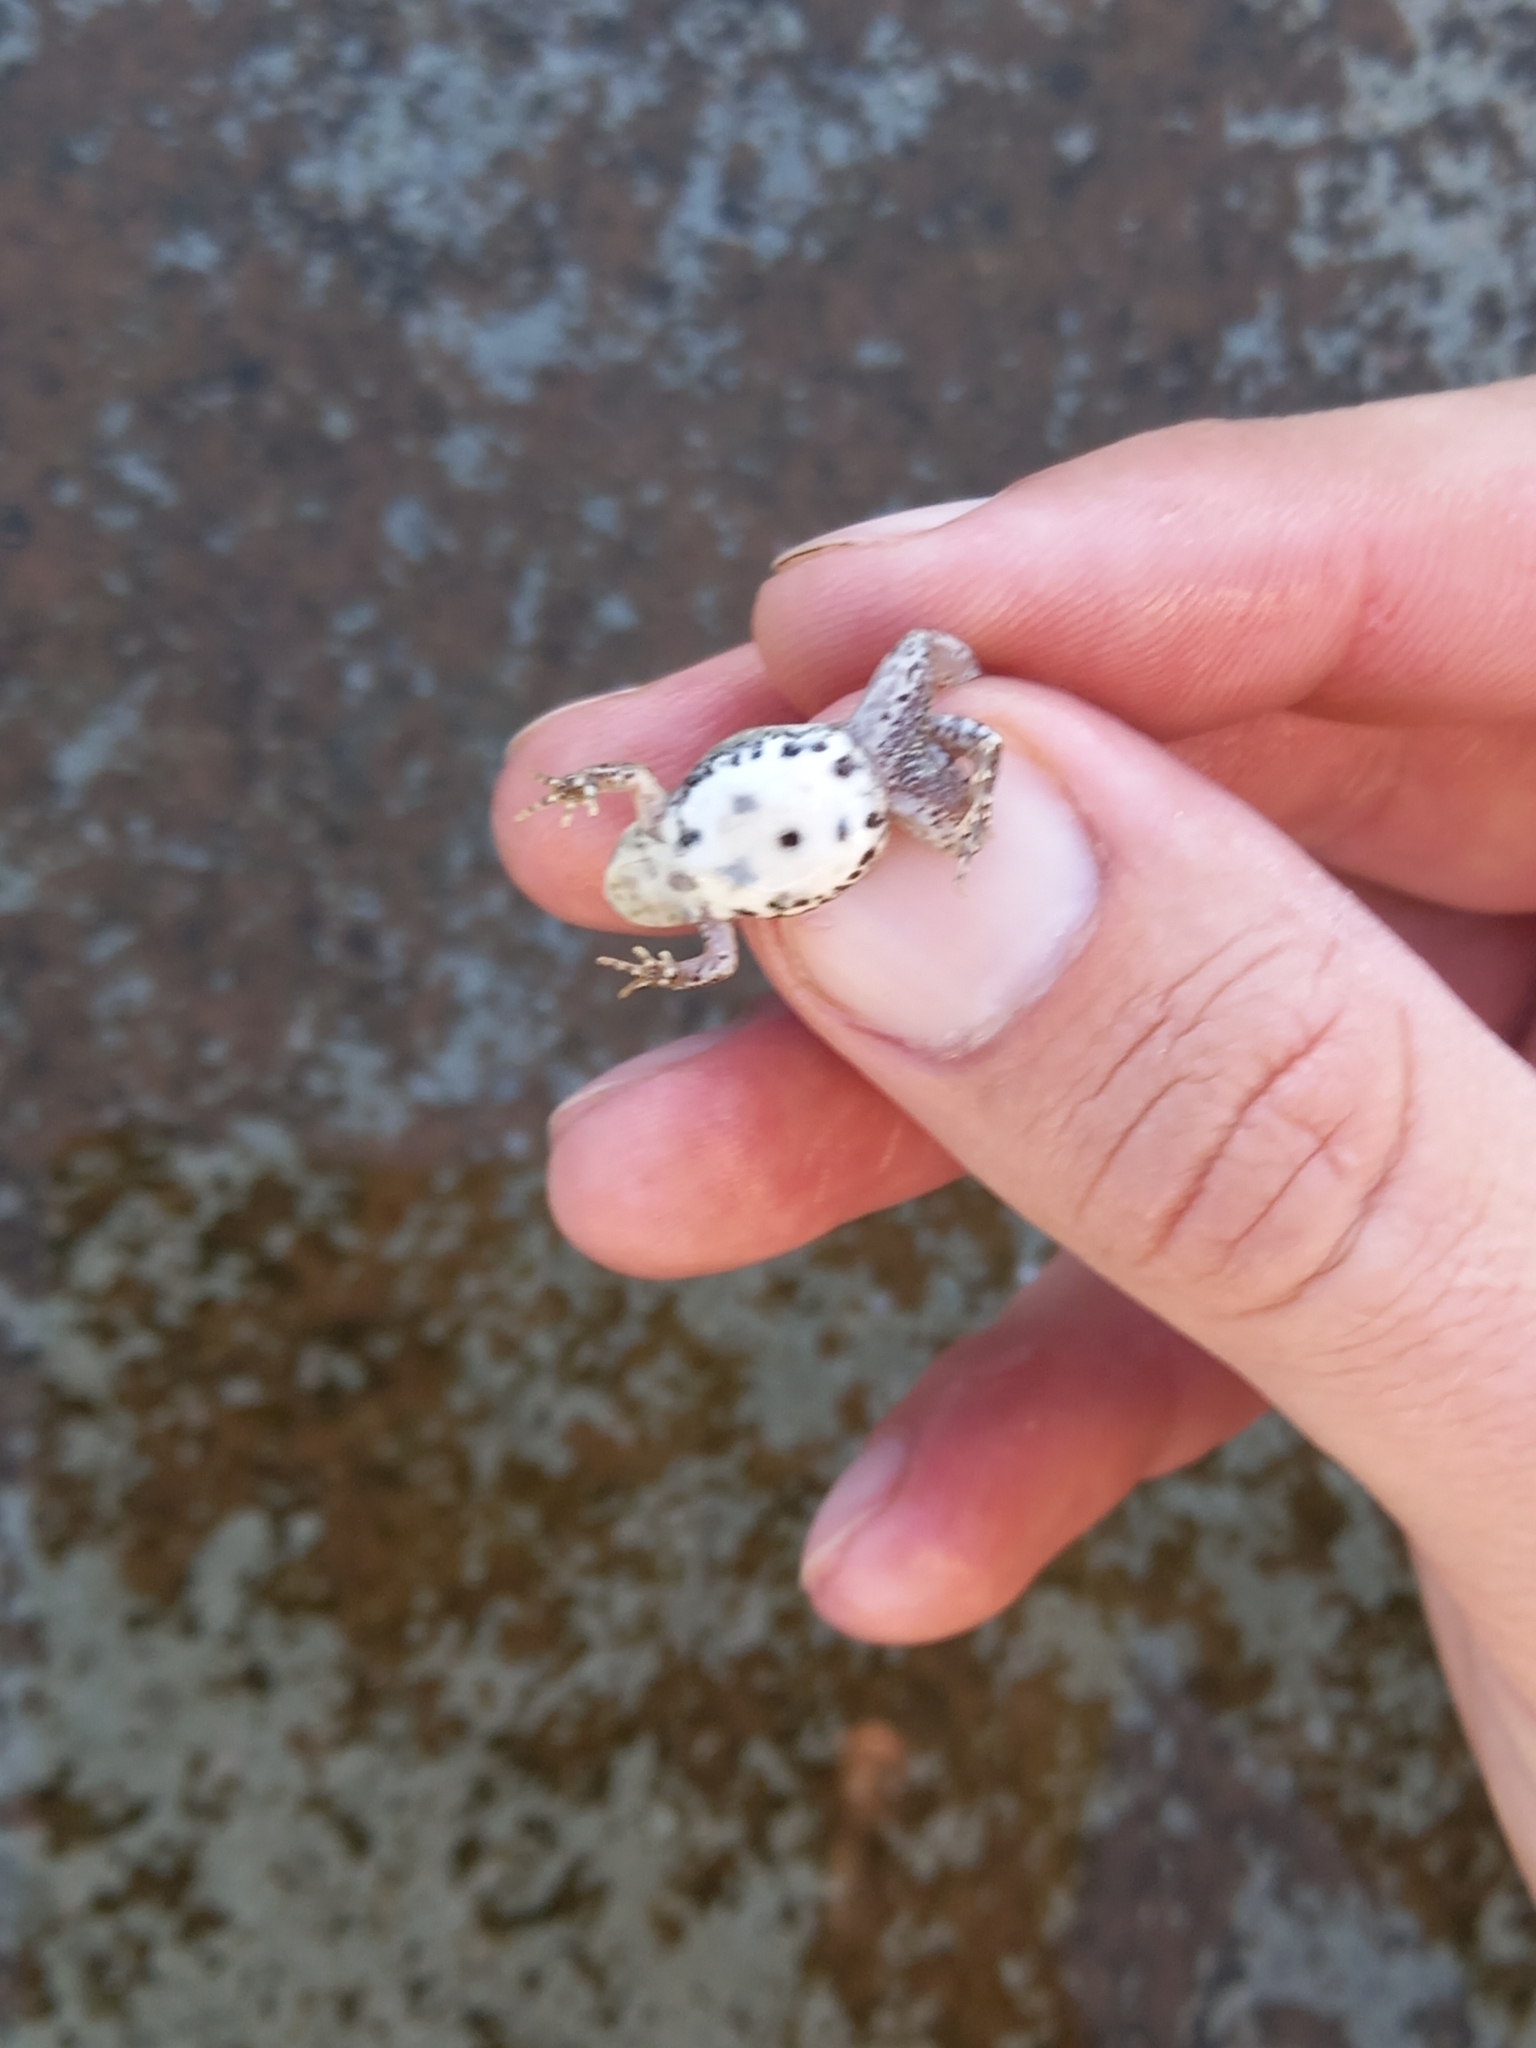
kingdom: Animalia
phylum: Chordata
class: Amphibia
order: Anura
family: Pyxicephalidae
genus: Cacosternum
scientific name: Cacosternum boettgeri
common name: Boettger's frog
